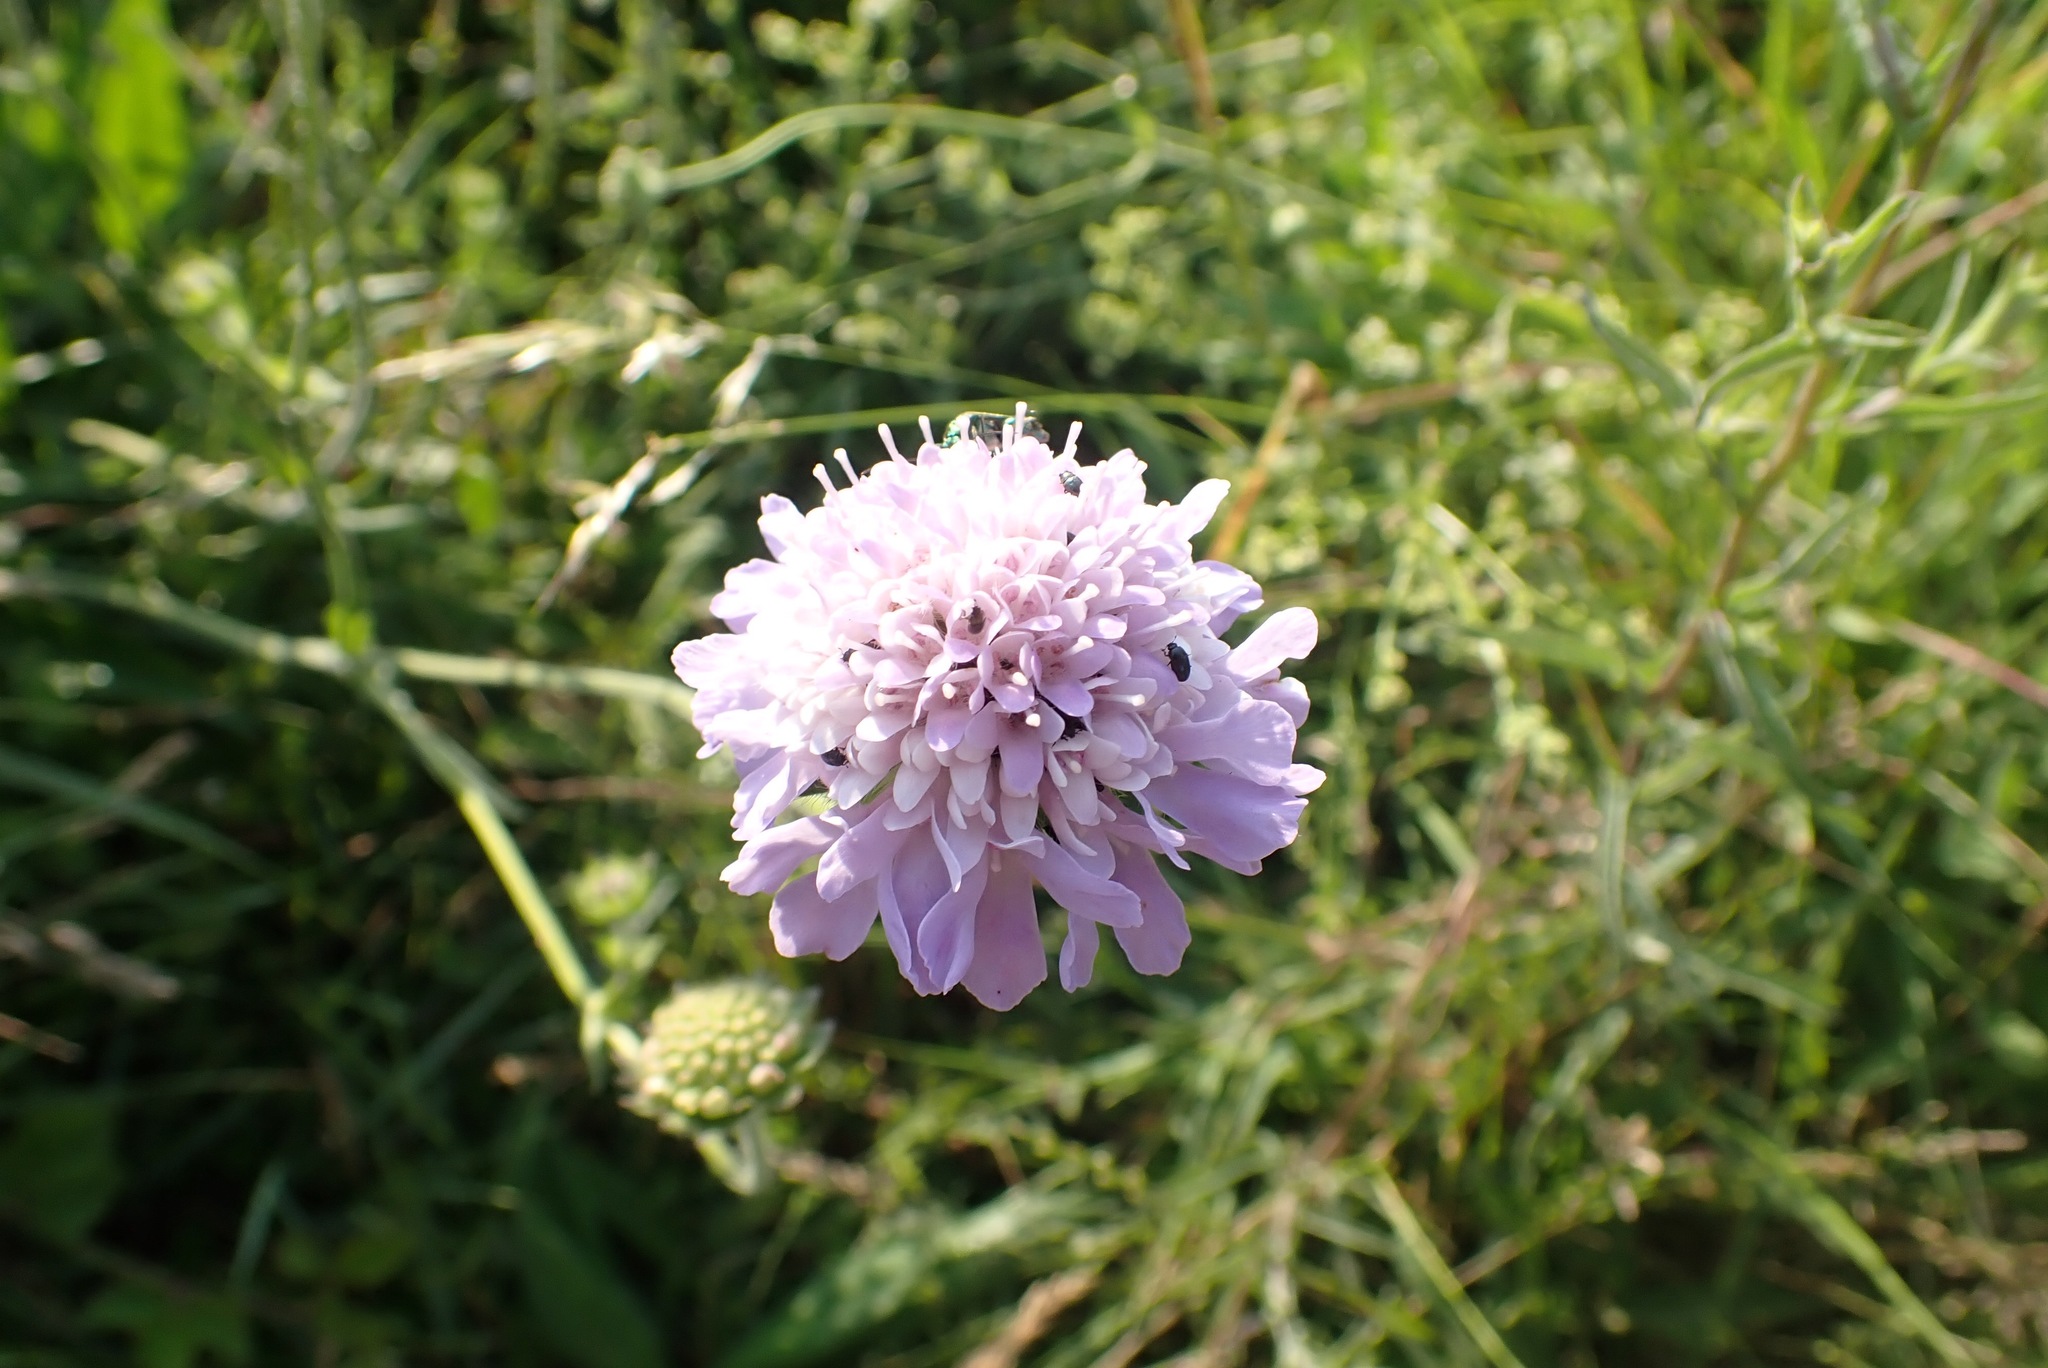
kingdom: Plantae
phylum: Tracheophyta
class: Magnoliopsida
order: Dipsacales
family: Caprifoliaceae
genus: Knautia
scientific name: Knautia arvensis
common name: Field scabiosa
